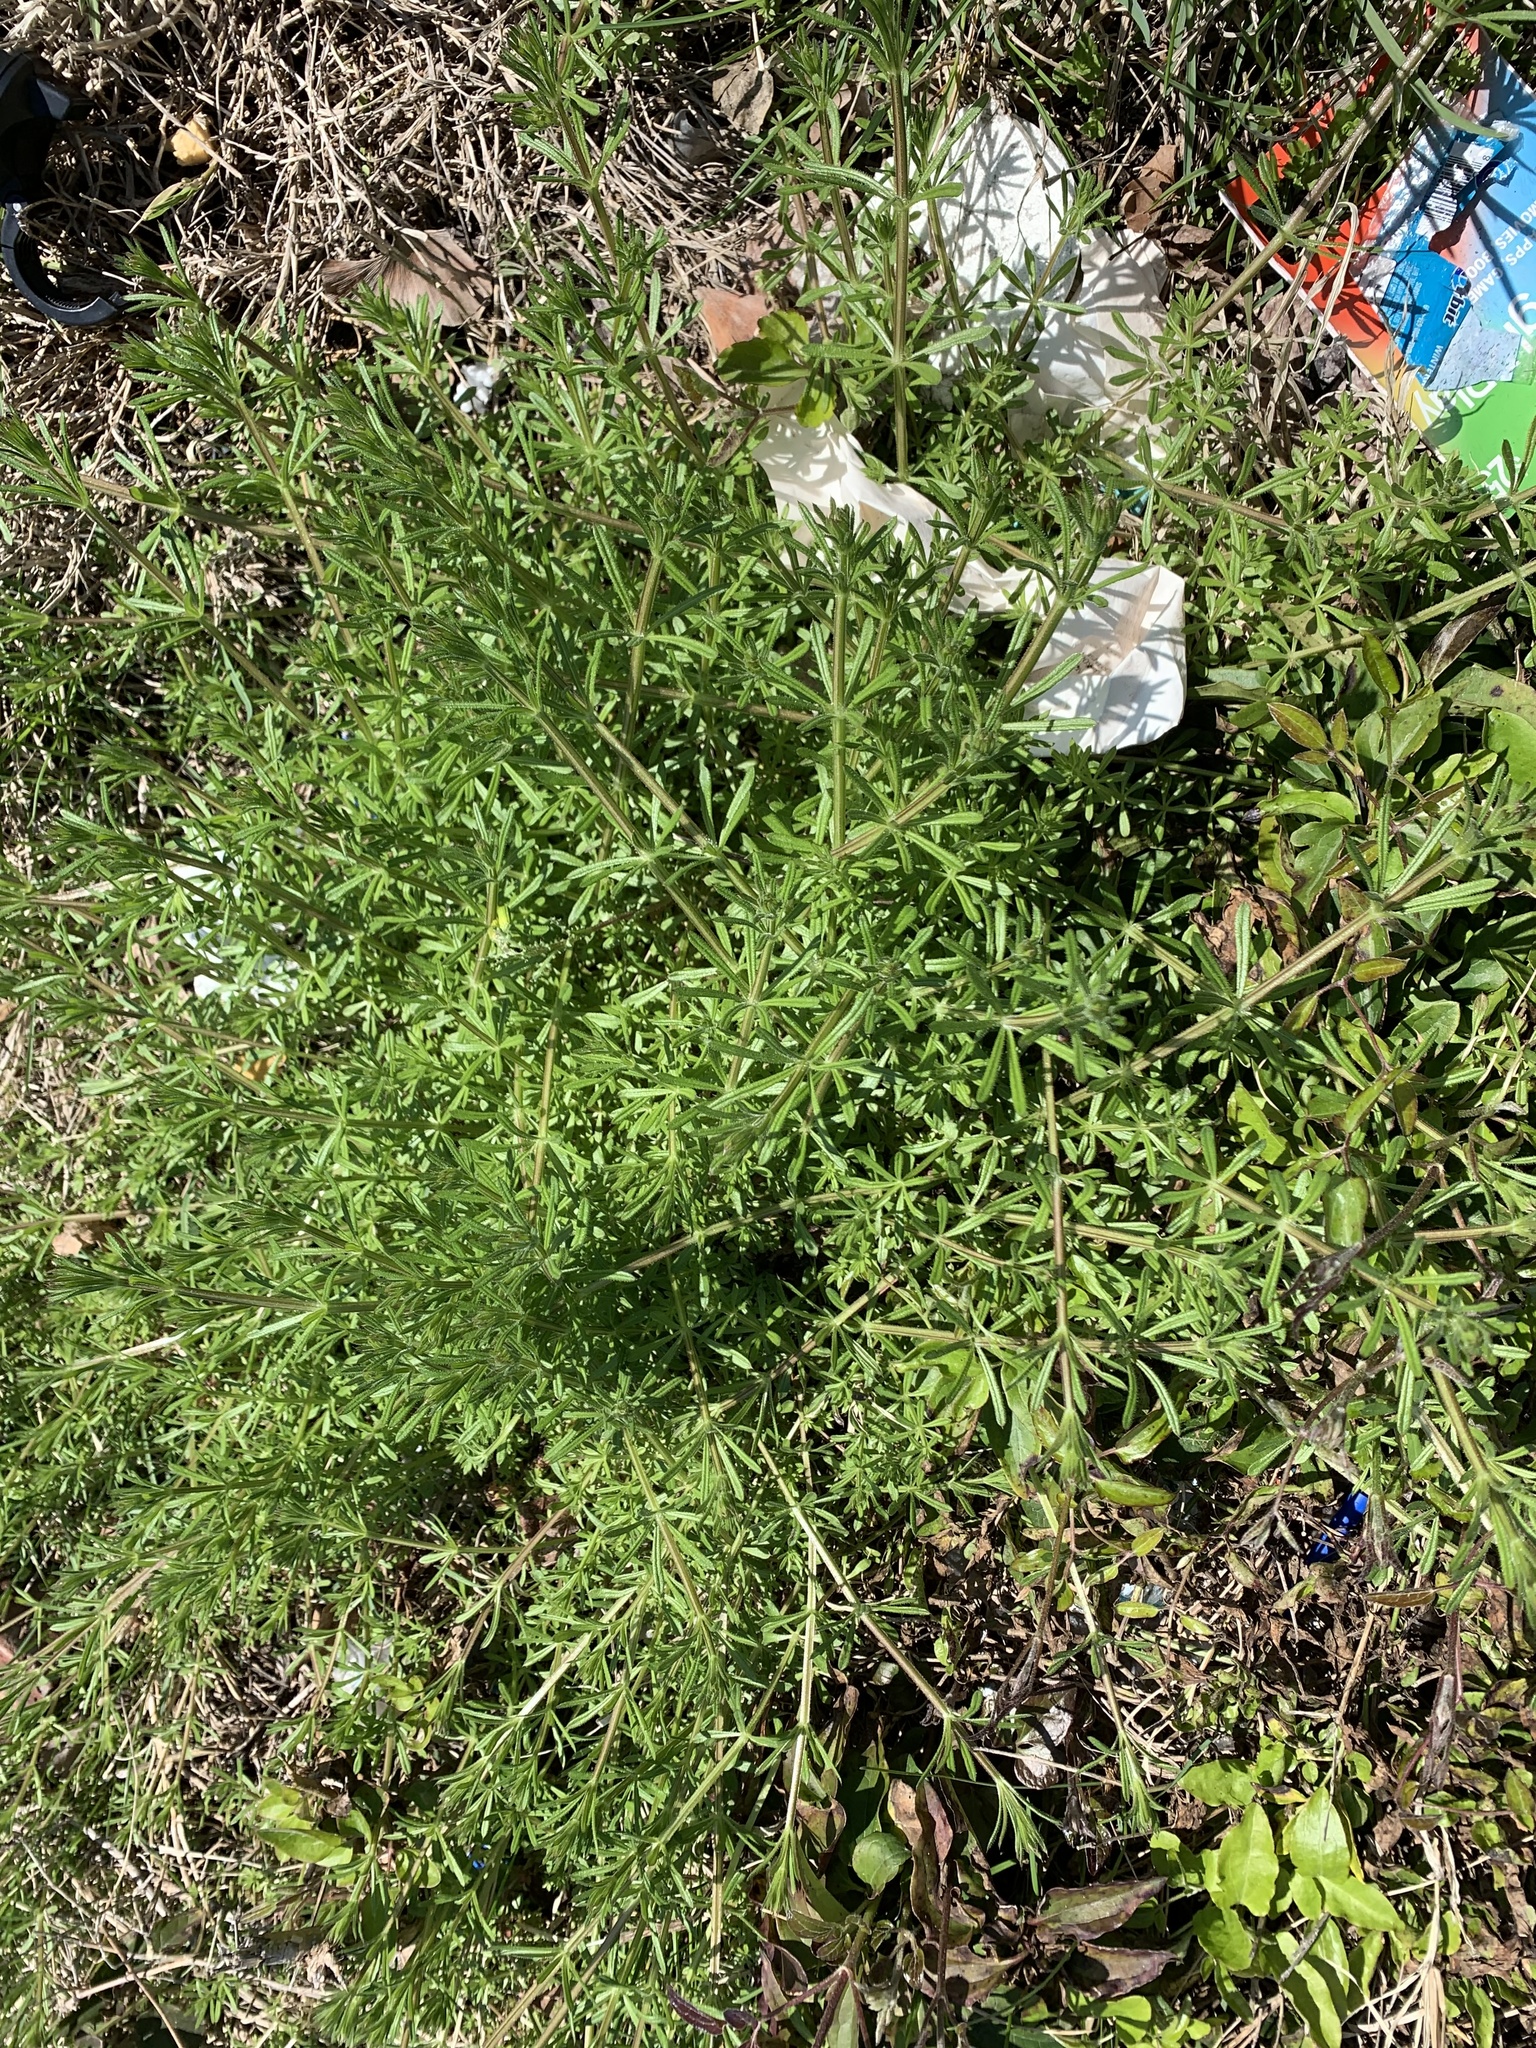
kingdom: Plantae
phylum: Tracheophyta
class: Magnoliopsida
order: Gentianales
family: Rubiaceae
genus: Galium
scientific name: Galium aparine
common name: Cleavers
